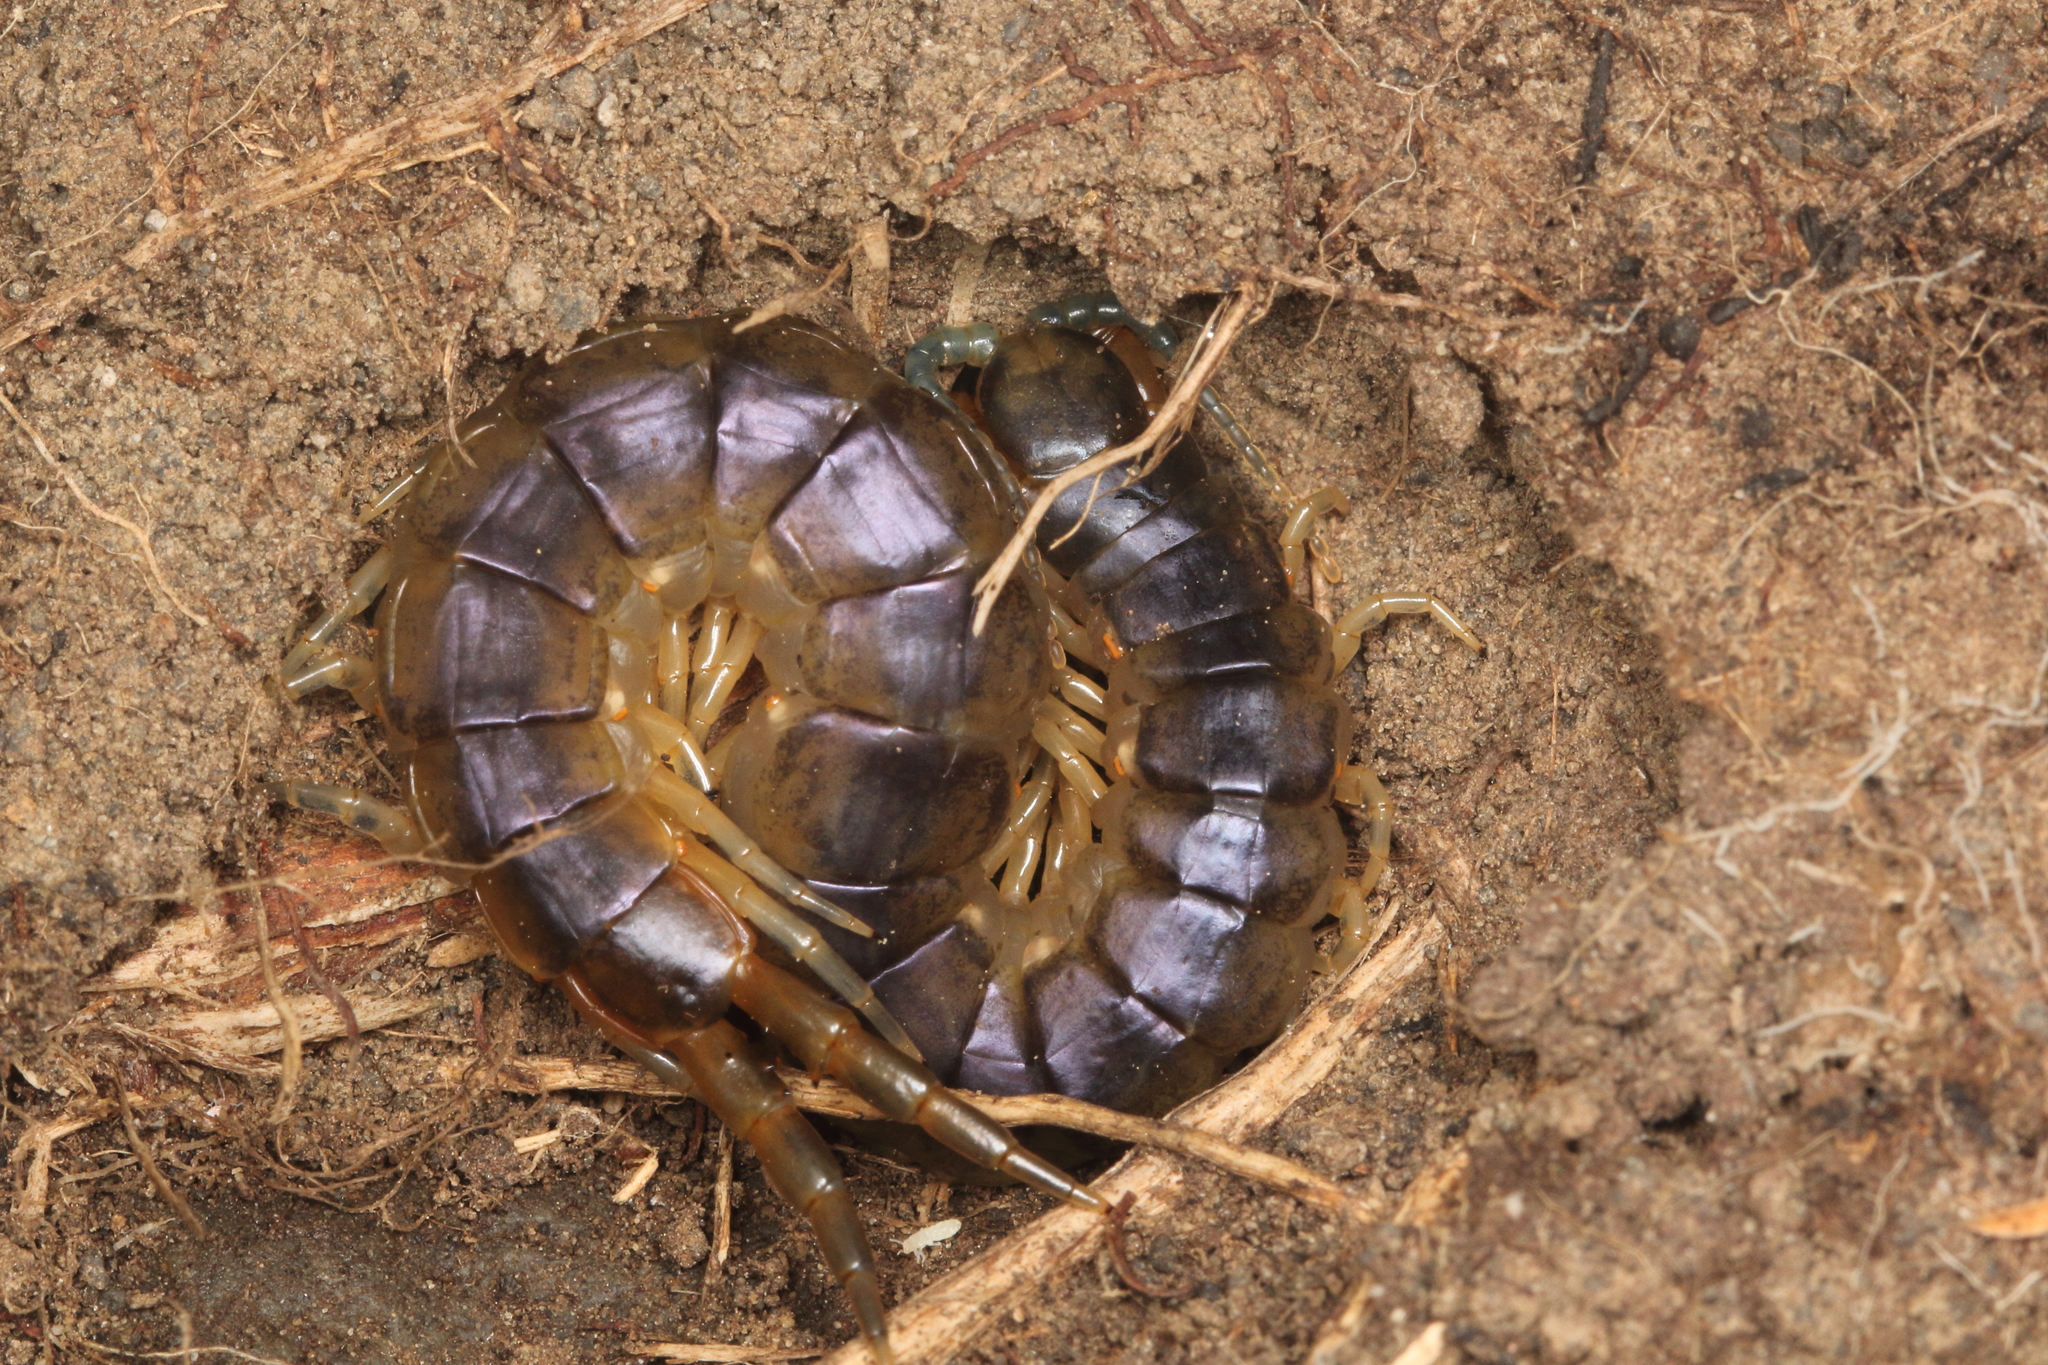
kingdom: Animalia
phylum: Arthropoda
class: Chilopoda
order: Scolopendromorpha
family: Scolopendridae
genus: Cormocephalus
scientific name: Cormocephalus westwoodi
